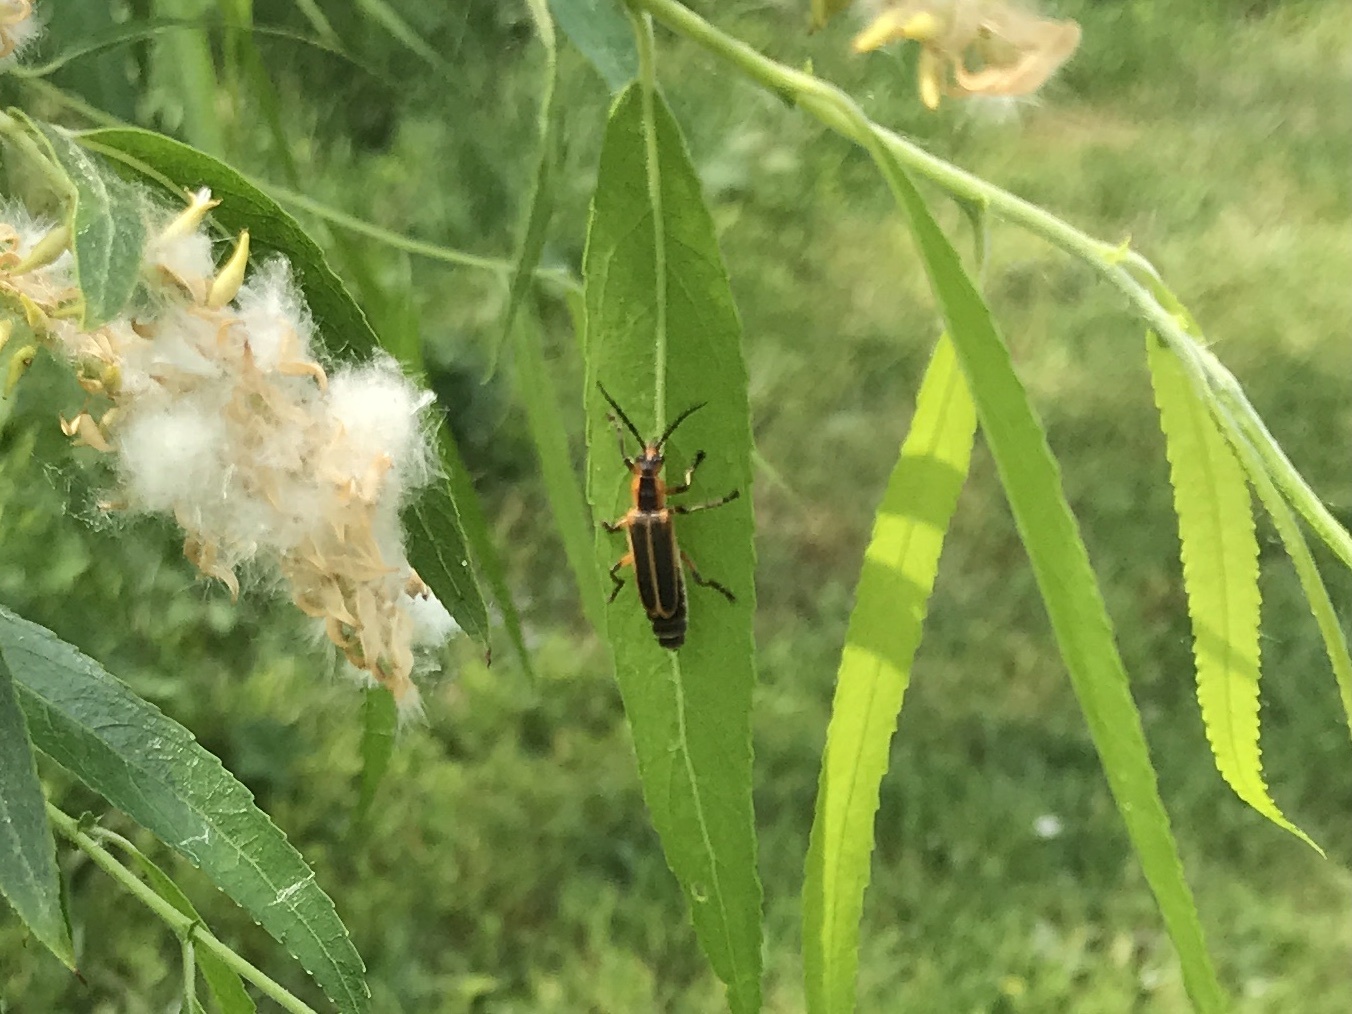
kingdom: Animalia
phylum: Arthropoda
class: Insecta
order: Coleoptera
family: Cantharidae
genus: Chauliognathus
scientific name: Chauliognathus marginatus
